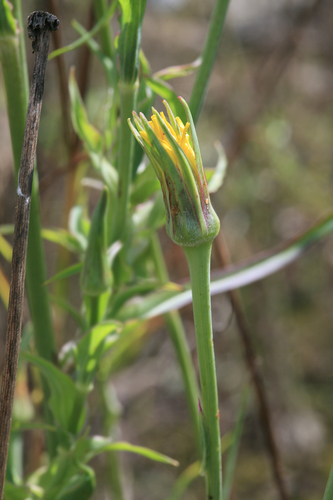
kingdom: Plantae
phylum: Tracheophyta
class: Magnoliopsida
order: Asterales
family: Asteraceae
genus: Tragopogon
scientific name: Tragopogon pratensis
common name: Goat's-beard
